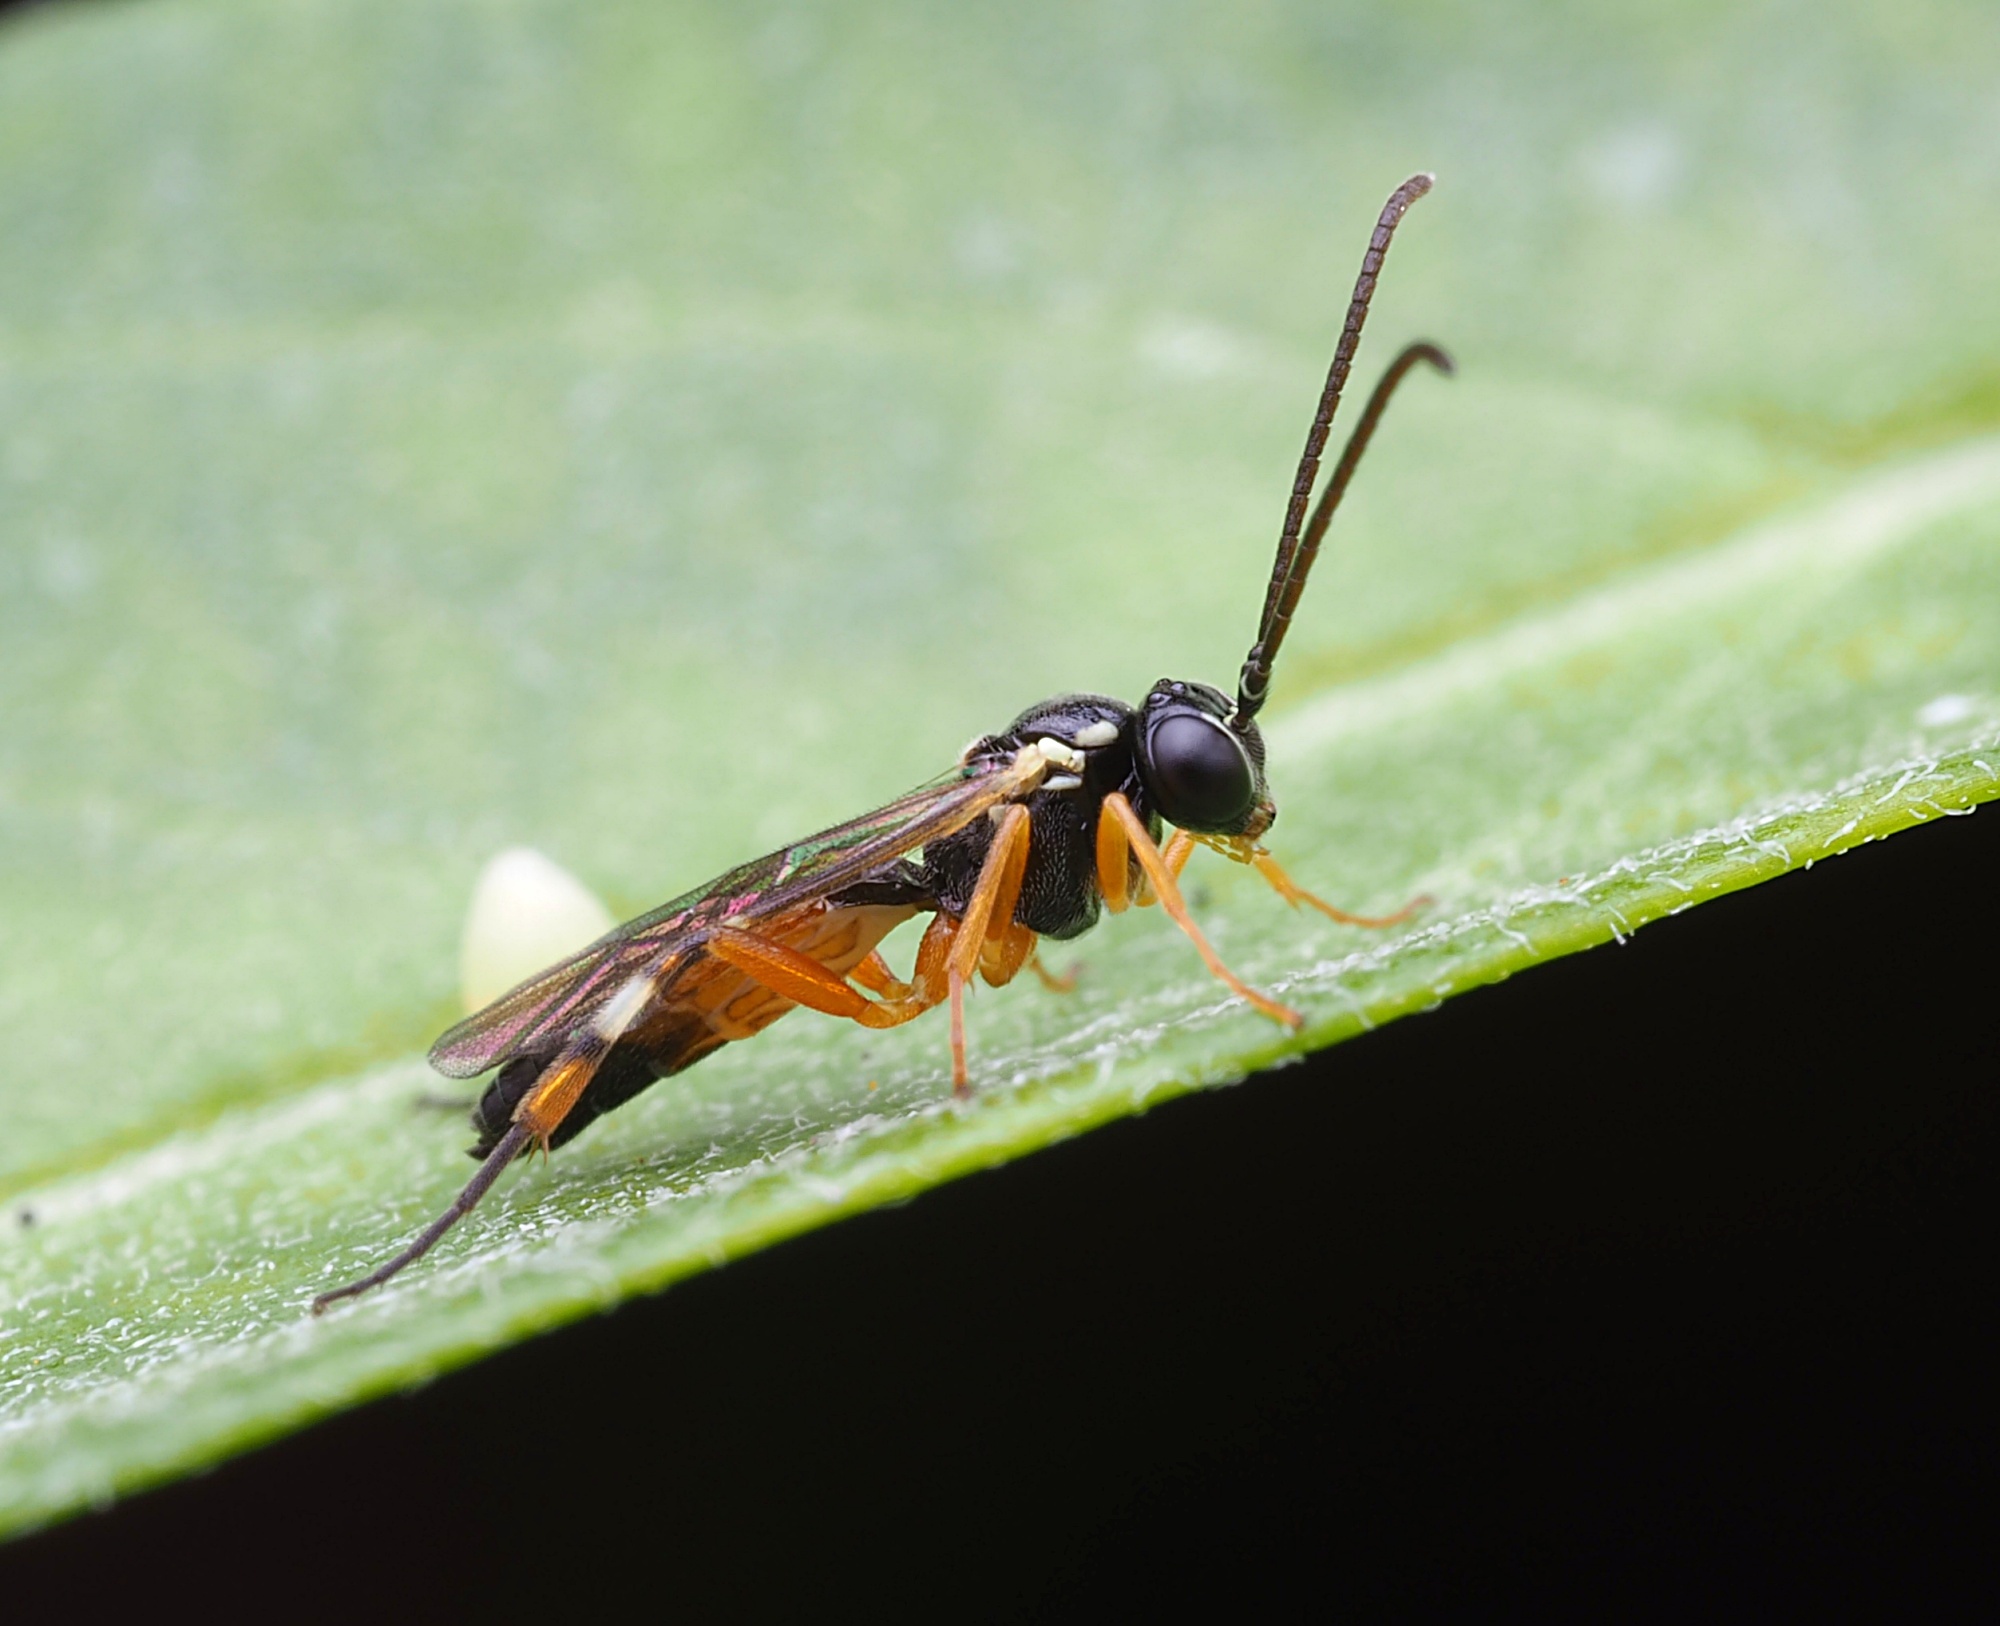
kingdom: Animalia
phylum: Arthropoda
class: Insecta
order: Hymenoptera
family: Ichneumonidae
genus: Diplazon
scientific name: Diplazon laetatorius
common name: Parasitoid wasp
